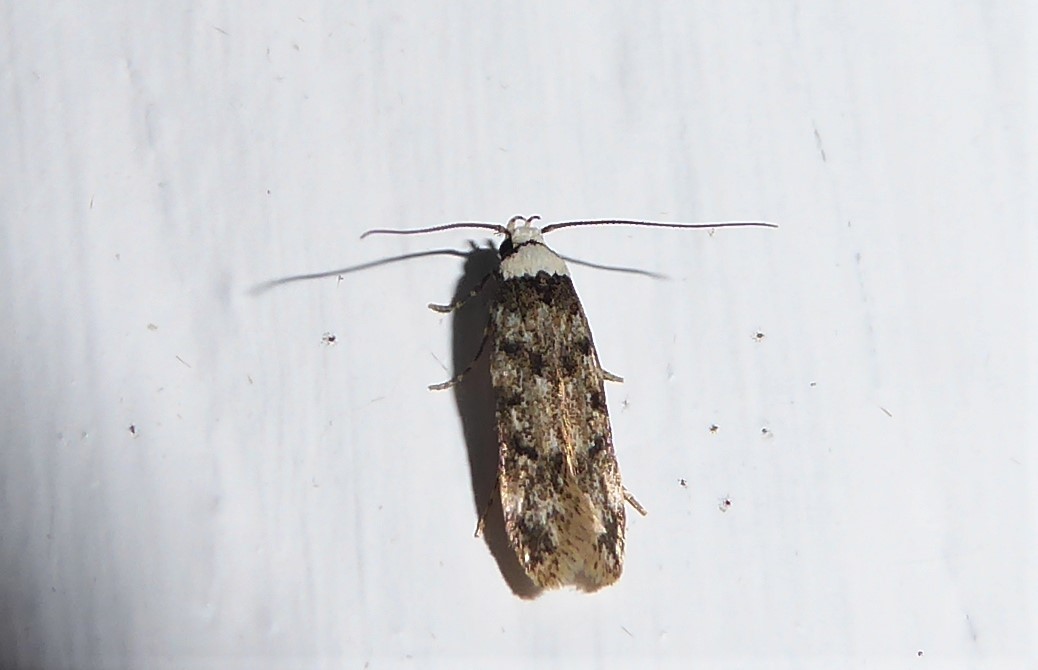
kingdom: Animalia
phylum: Arthropoda
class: Insecta
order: Lepidoptera
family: Oecophoridae
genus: Endrosis
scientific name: Endrosis sarcitrella
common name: White-shouldered house moth
